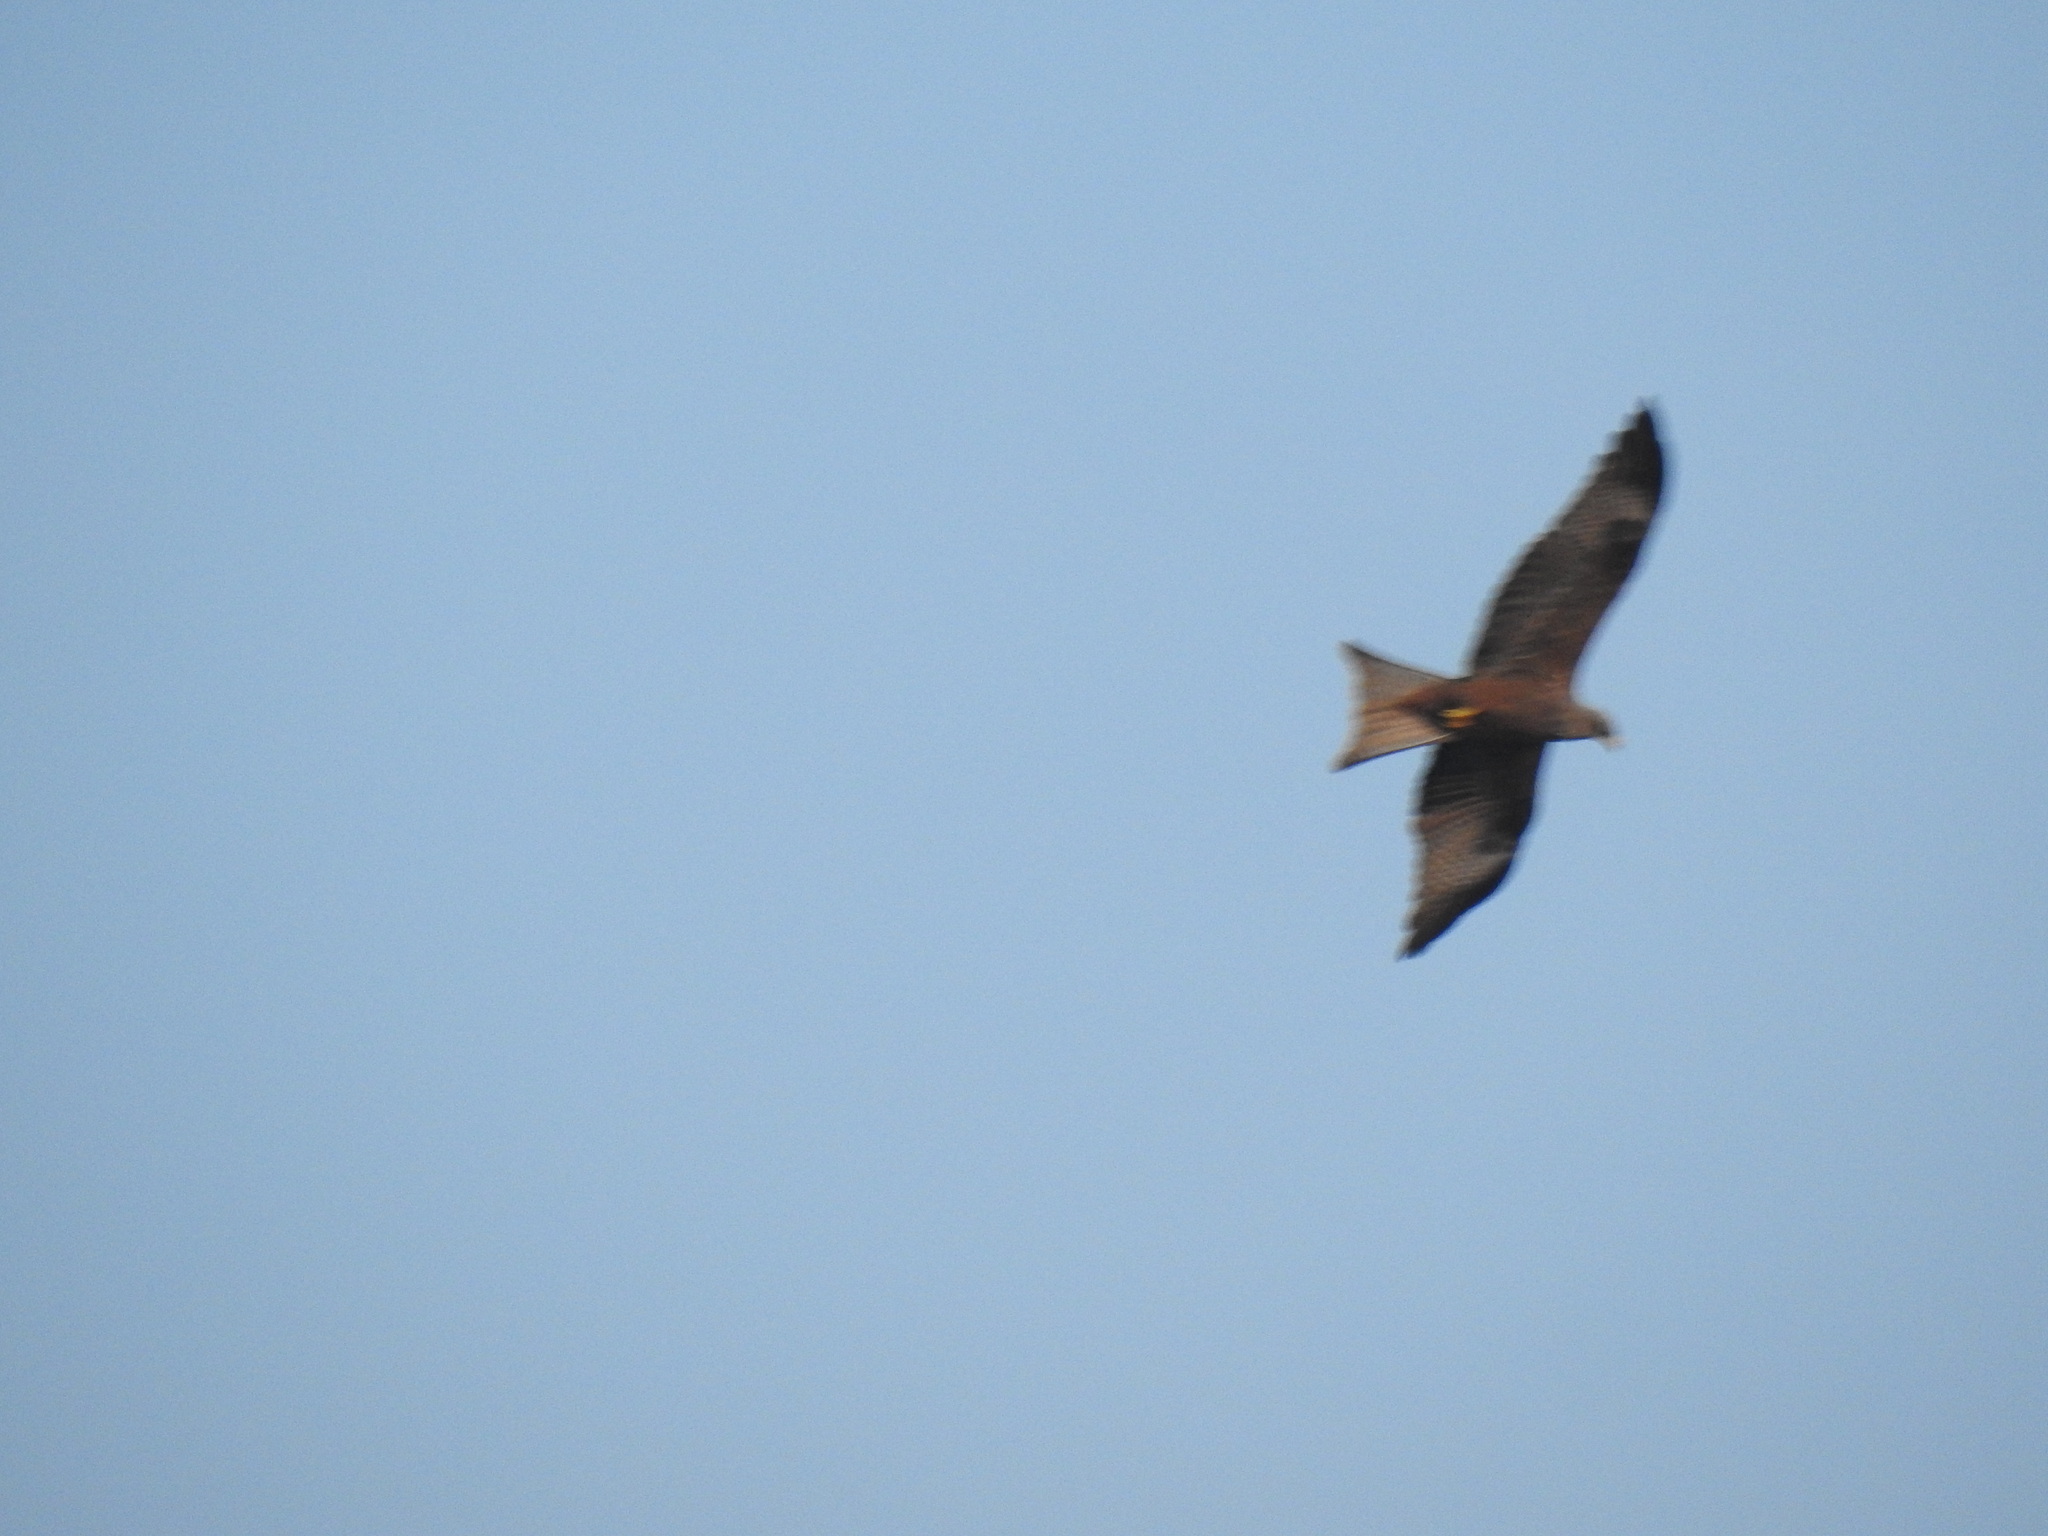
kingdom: Animalia
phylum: Chordata
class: Aves
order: Accipitriformes
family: Accipitridae
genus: Milvus
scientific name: Milvus migrans
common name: Black kite
